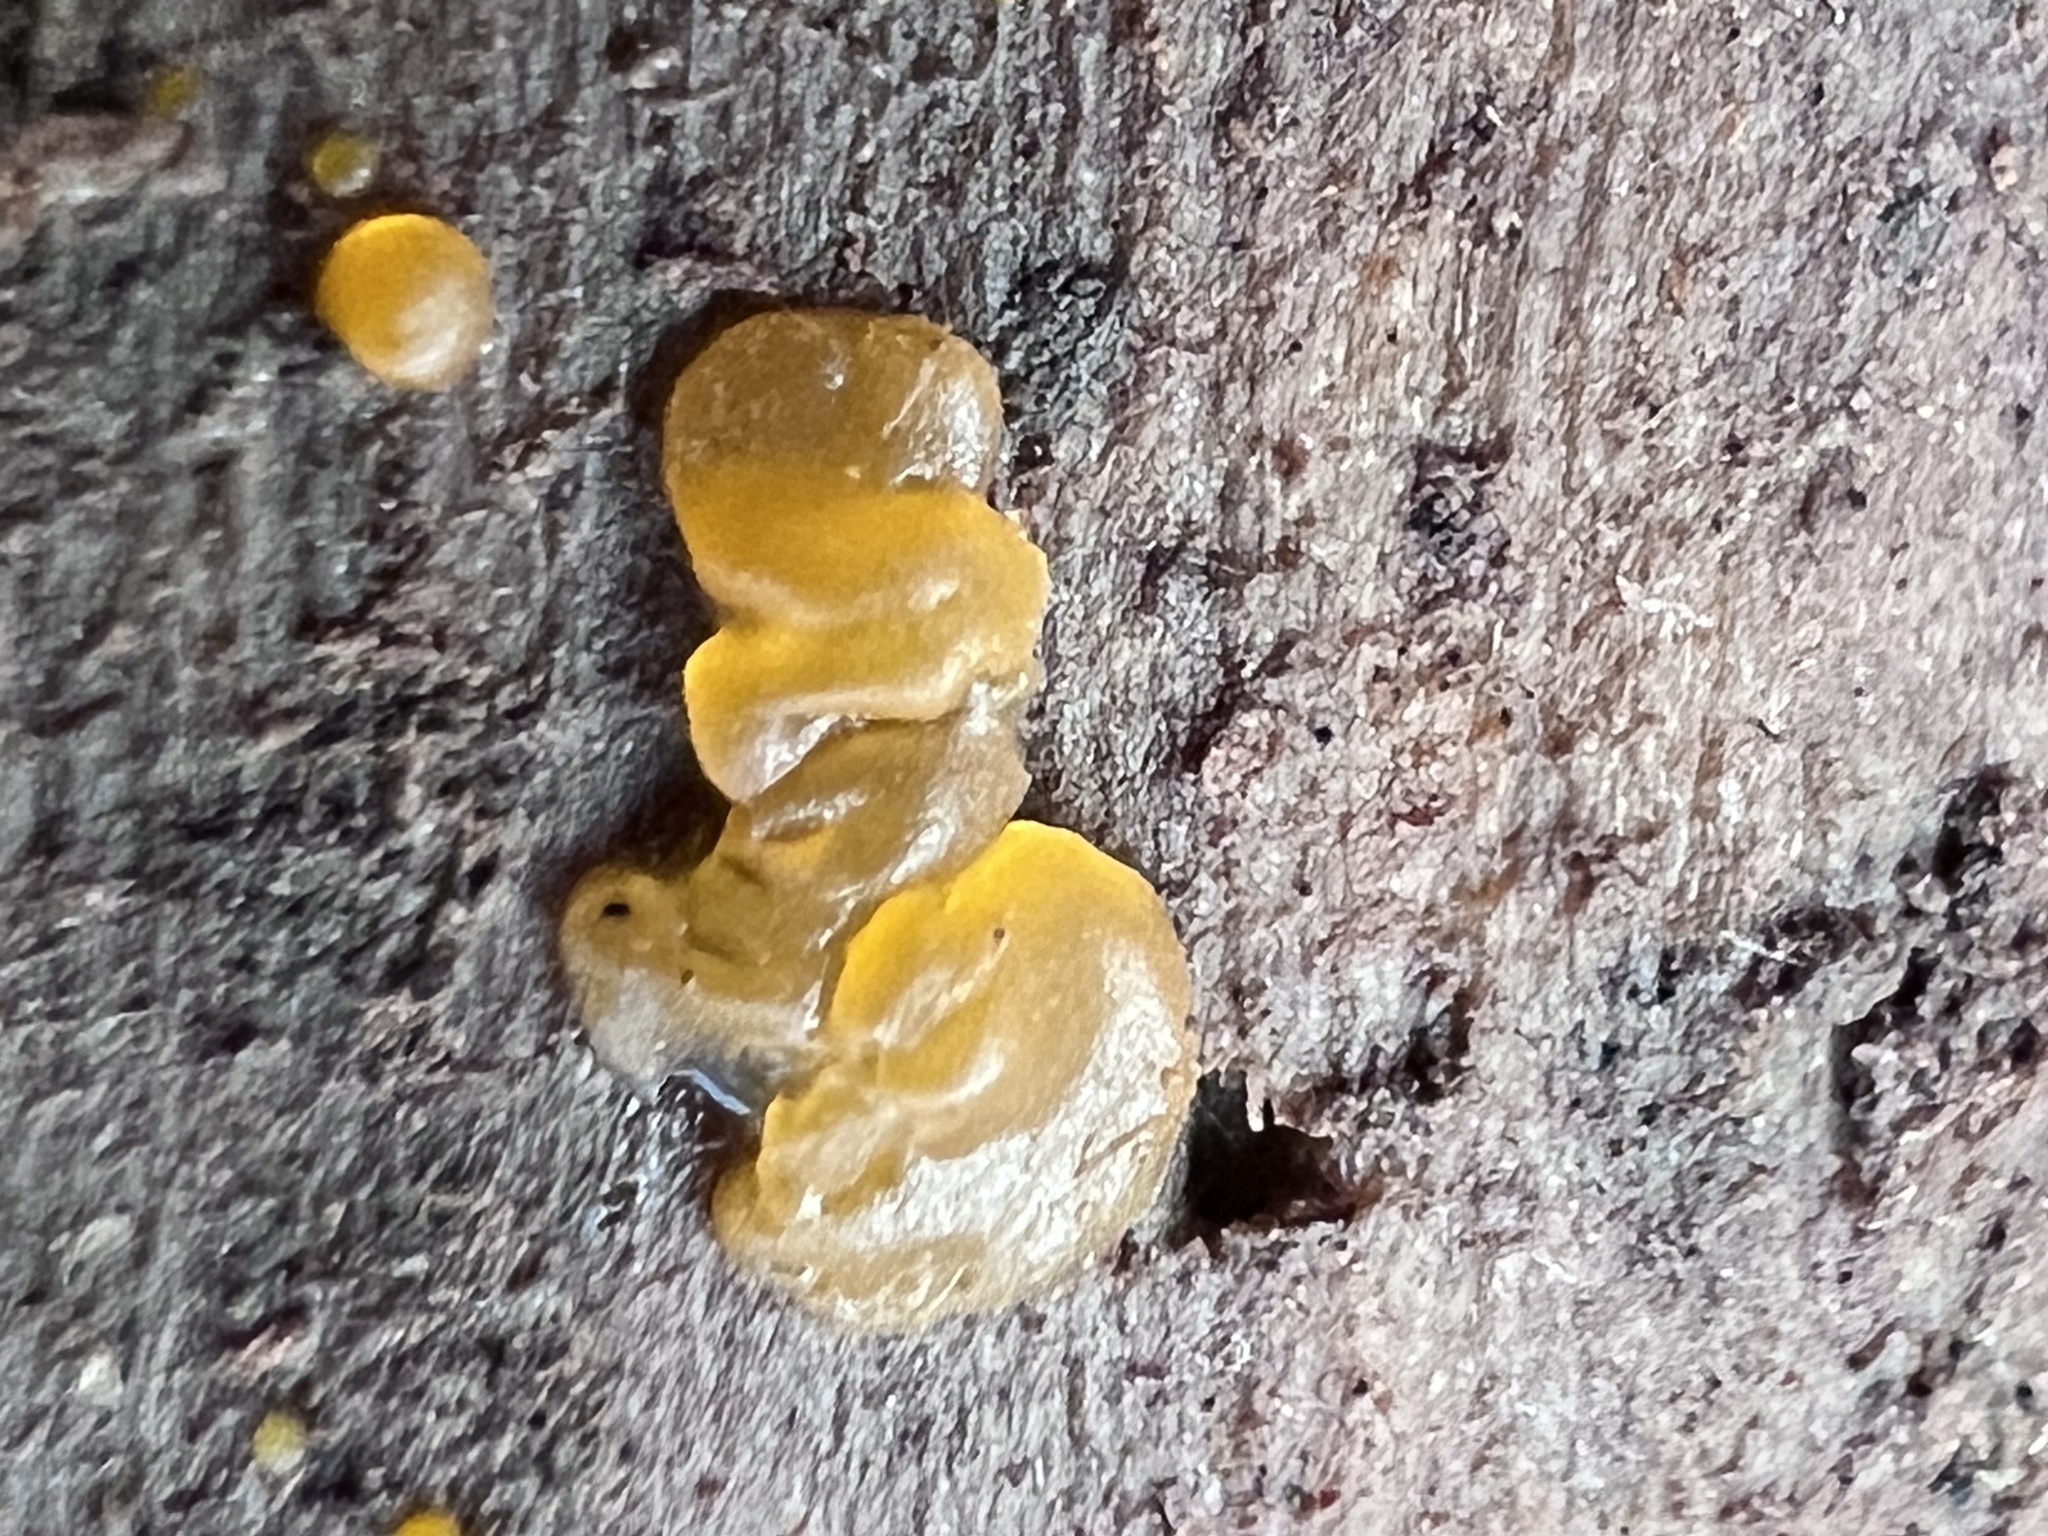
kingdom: Fungi
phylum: Basidiomycota
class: Dacrymycetes
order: Dacrymycetales
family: Dacrymycetaceae
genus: Dacrymyces
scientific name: Dacrymyces stillatus
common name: Common jelly spot
